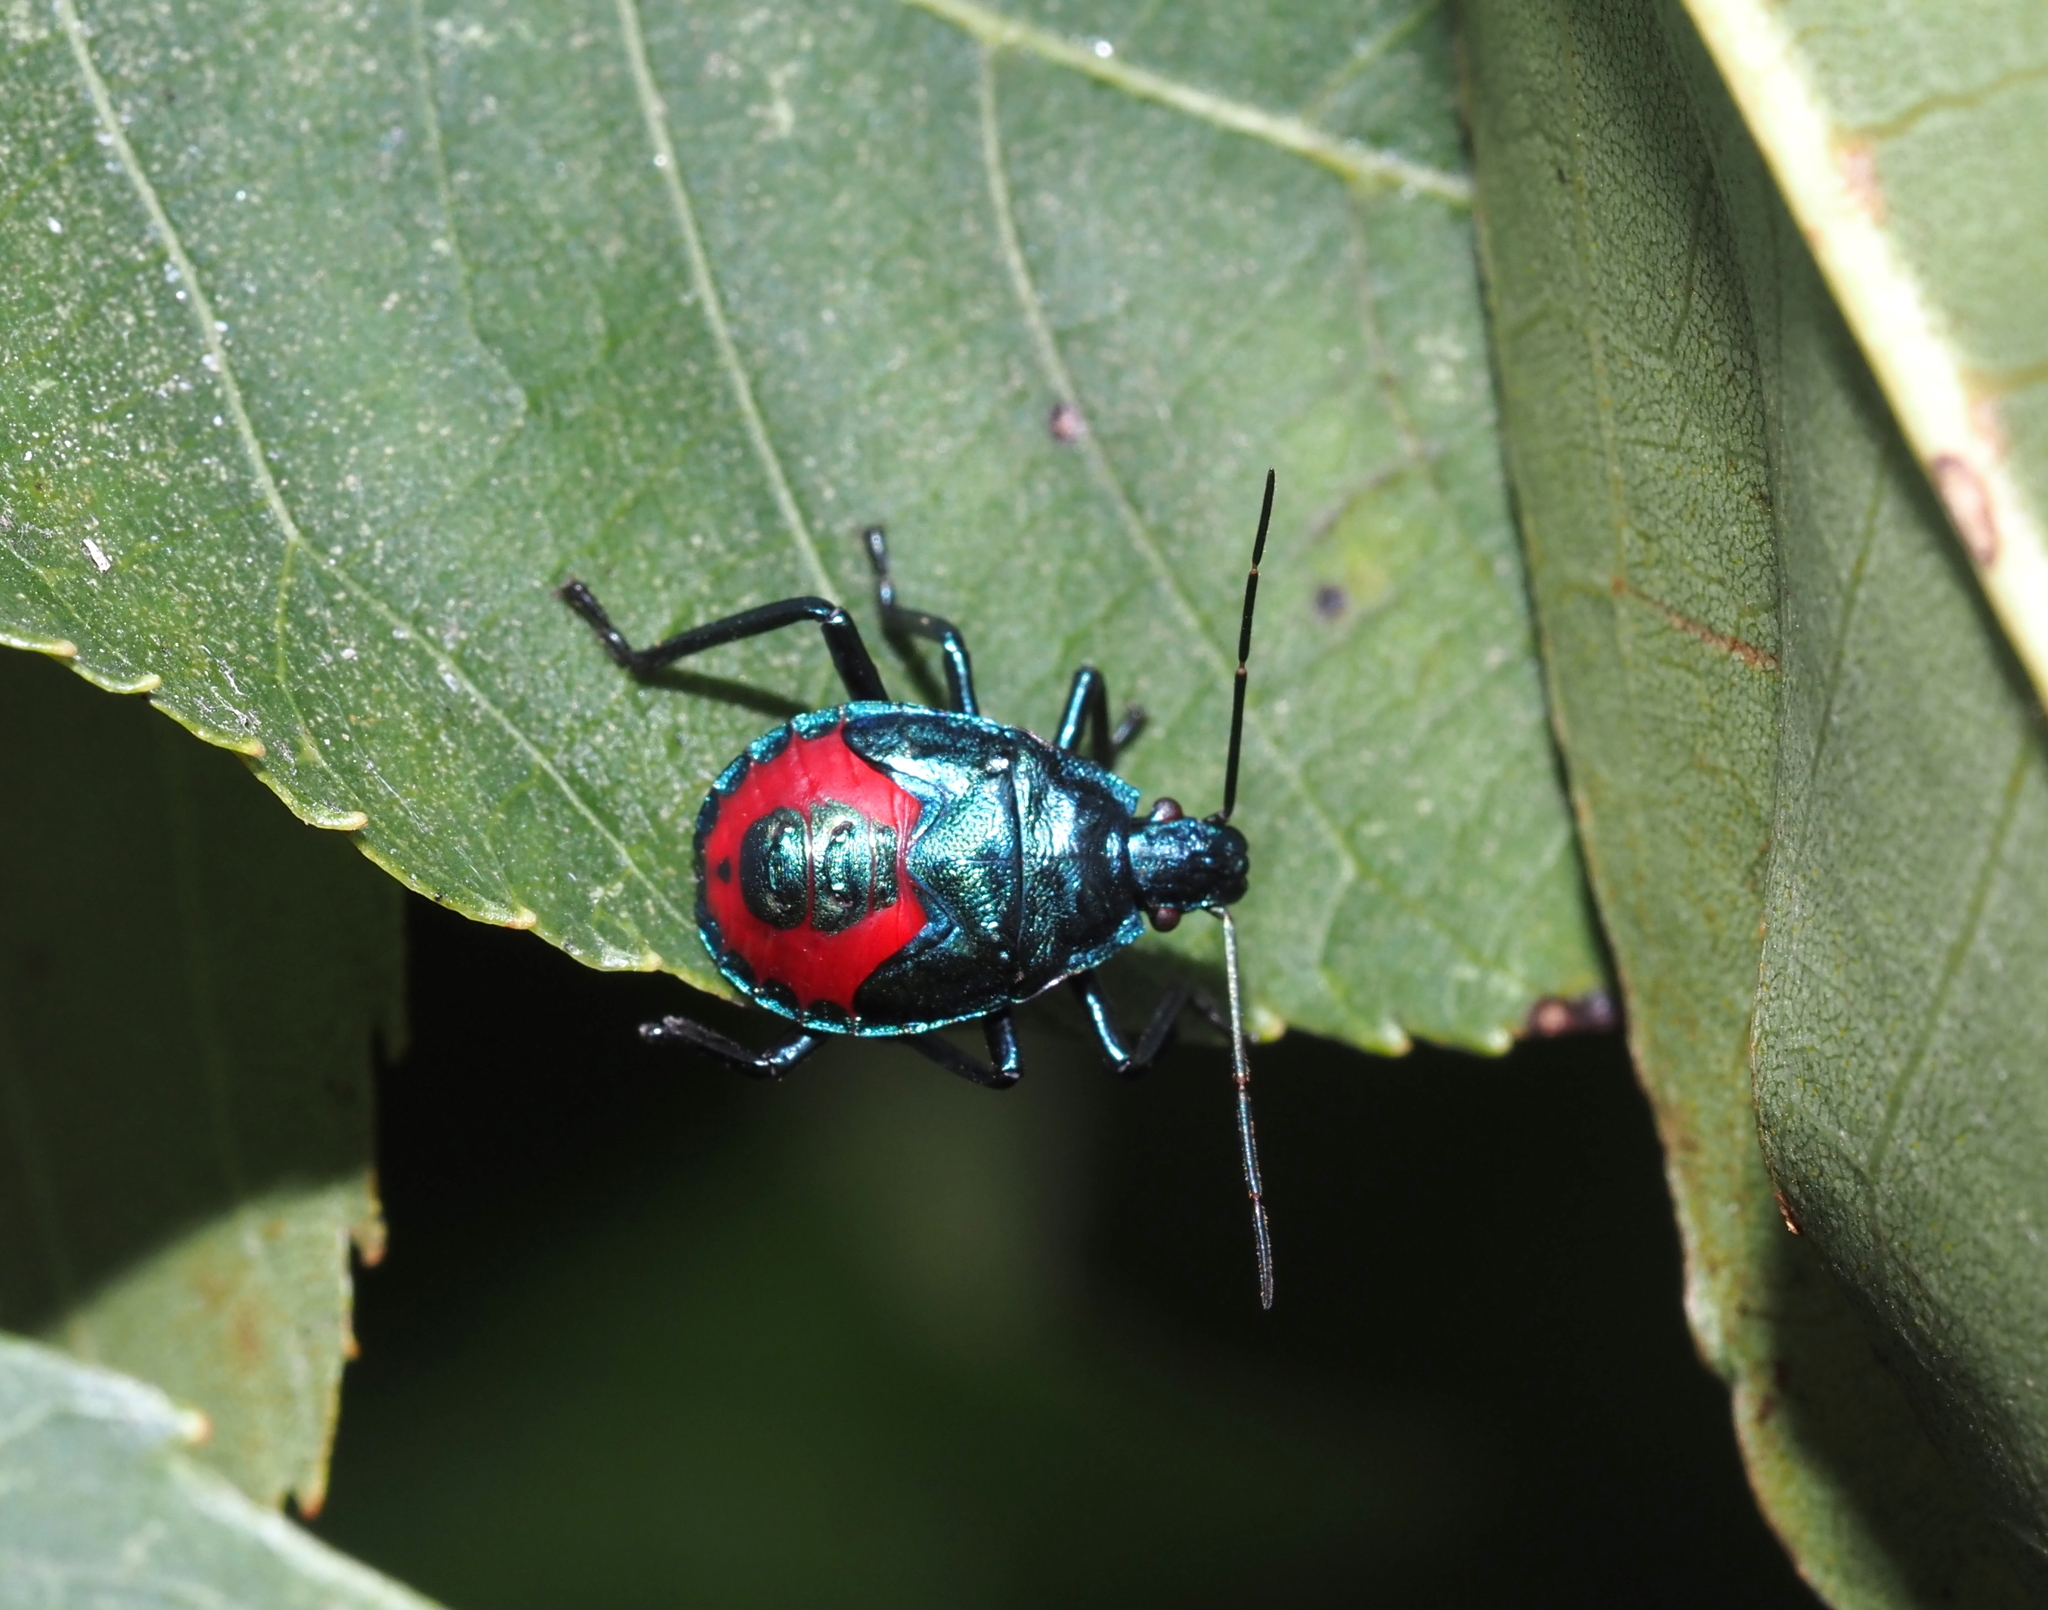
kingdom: Animalia
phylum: Arthropoda
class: Insecta
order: Hemiptera
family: Pentatomidae
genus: Euthyrhynchus
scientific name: Euthyrhynchus floridanus
